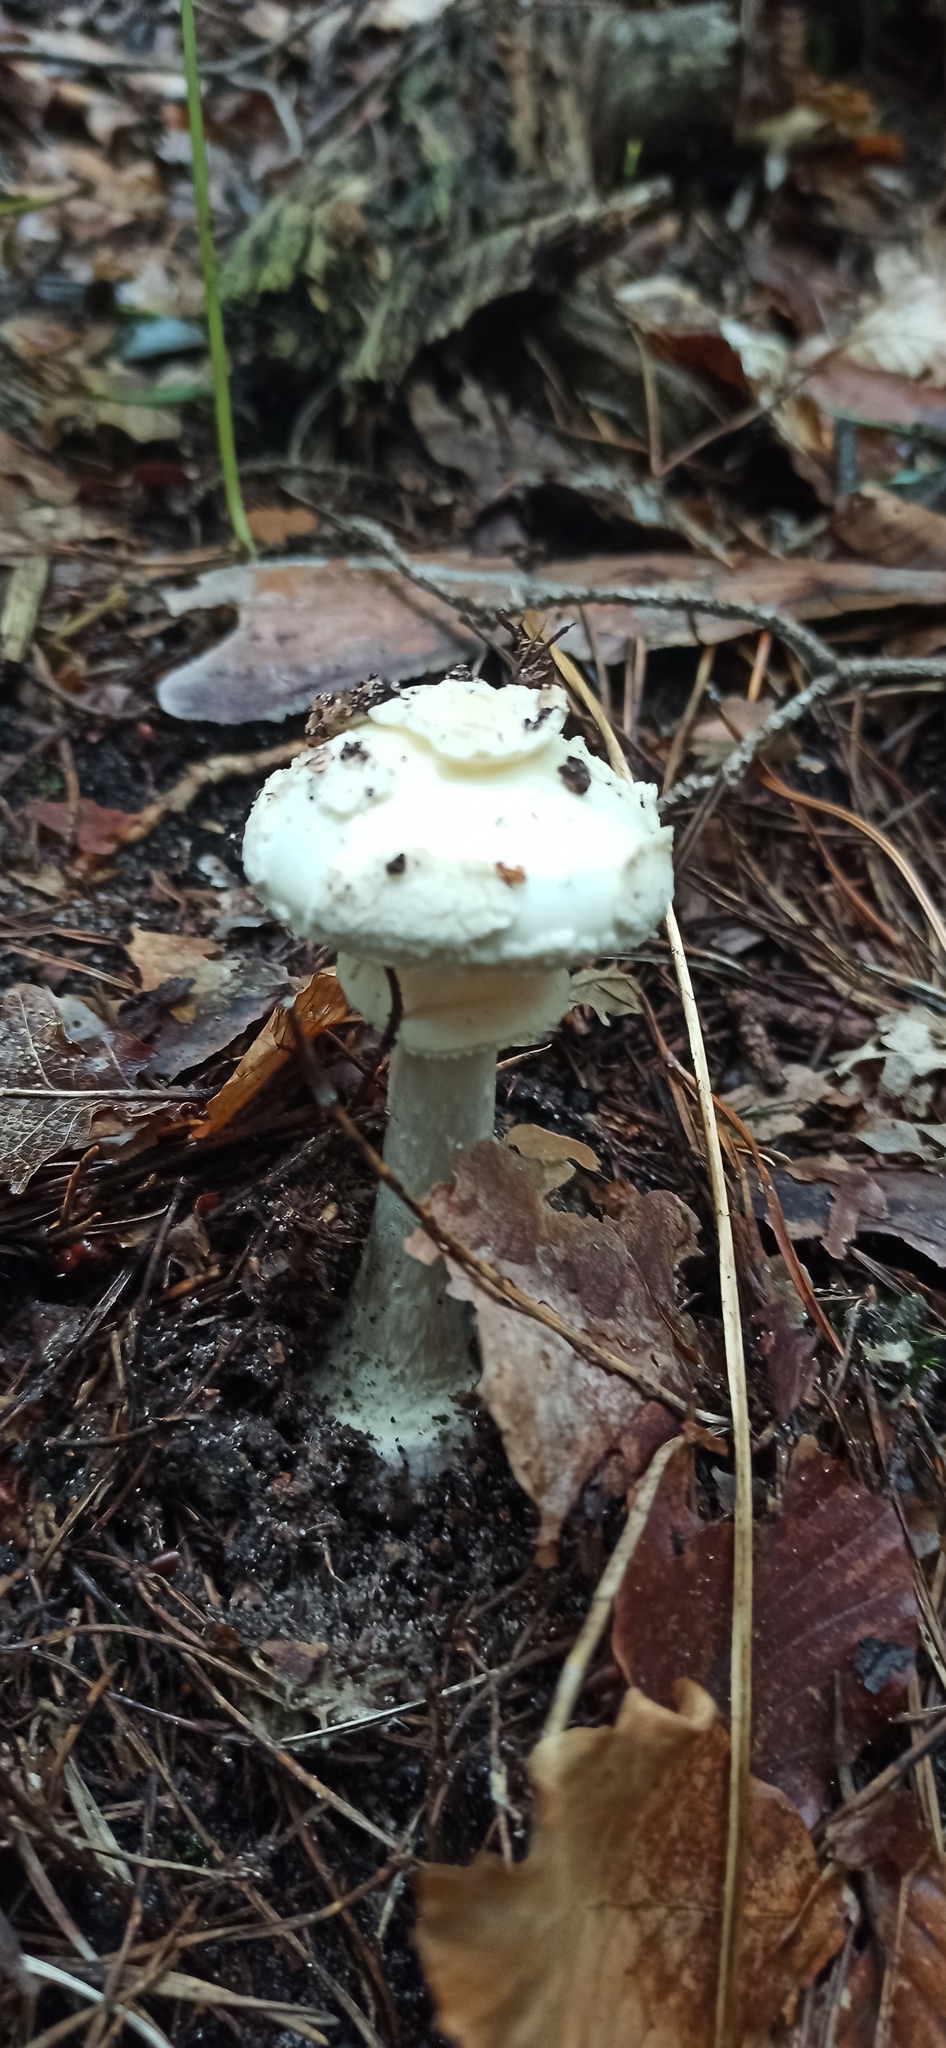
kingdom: Fungi
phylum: Basidiomycota
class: Agaricomycetes
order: Agaricales
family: Amanitaceae
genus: Amanita
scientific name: Amanita citrina
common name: False death-cap
